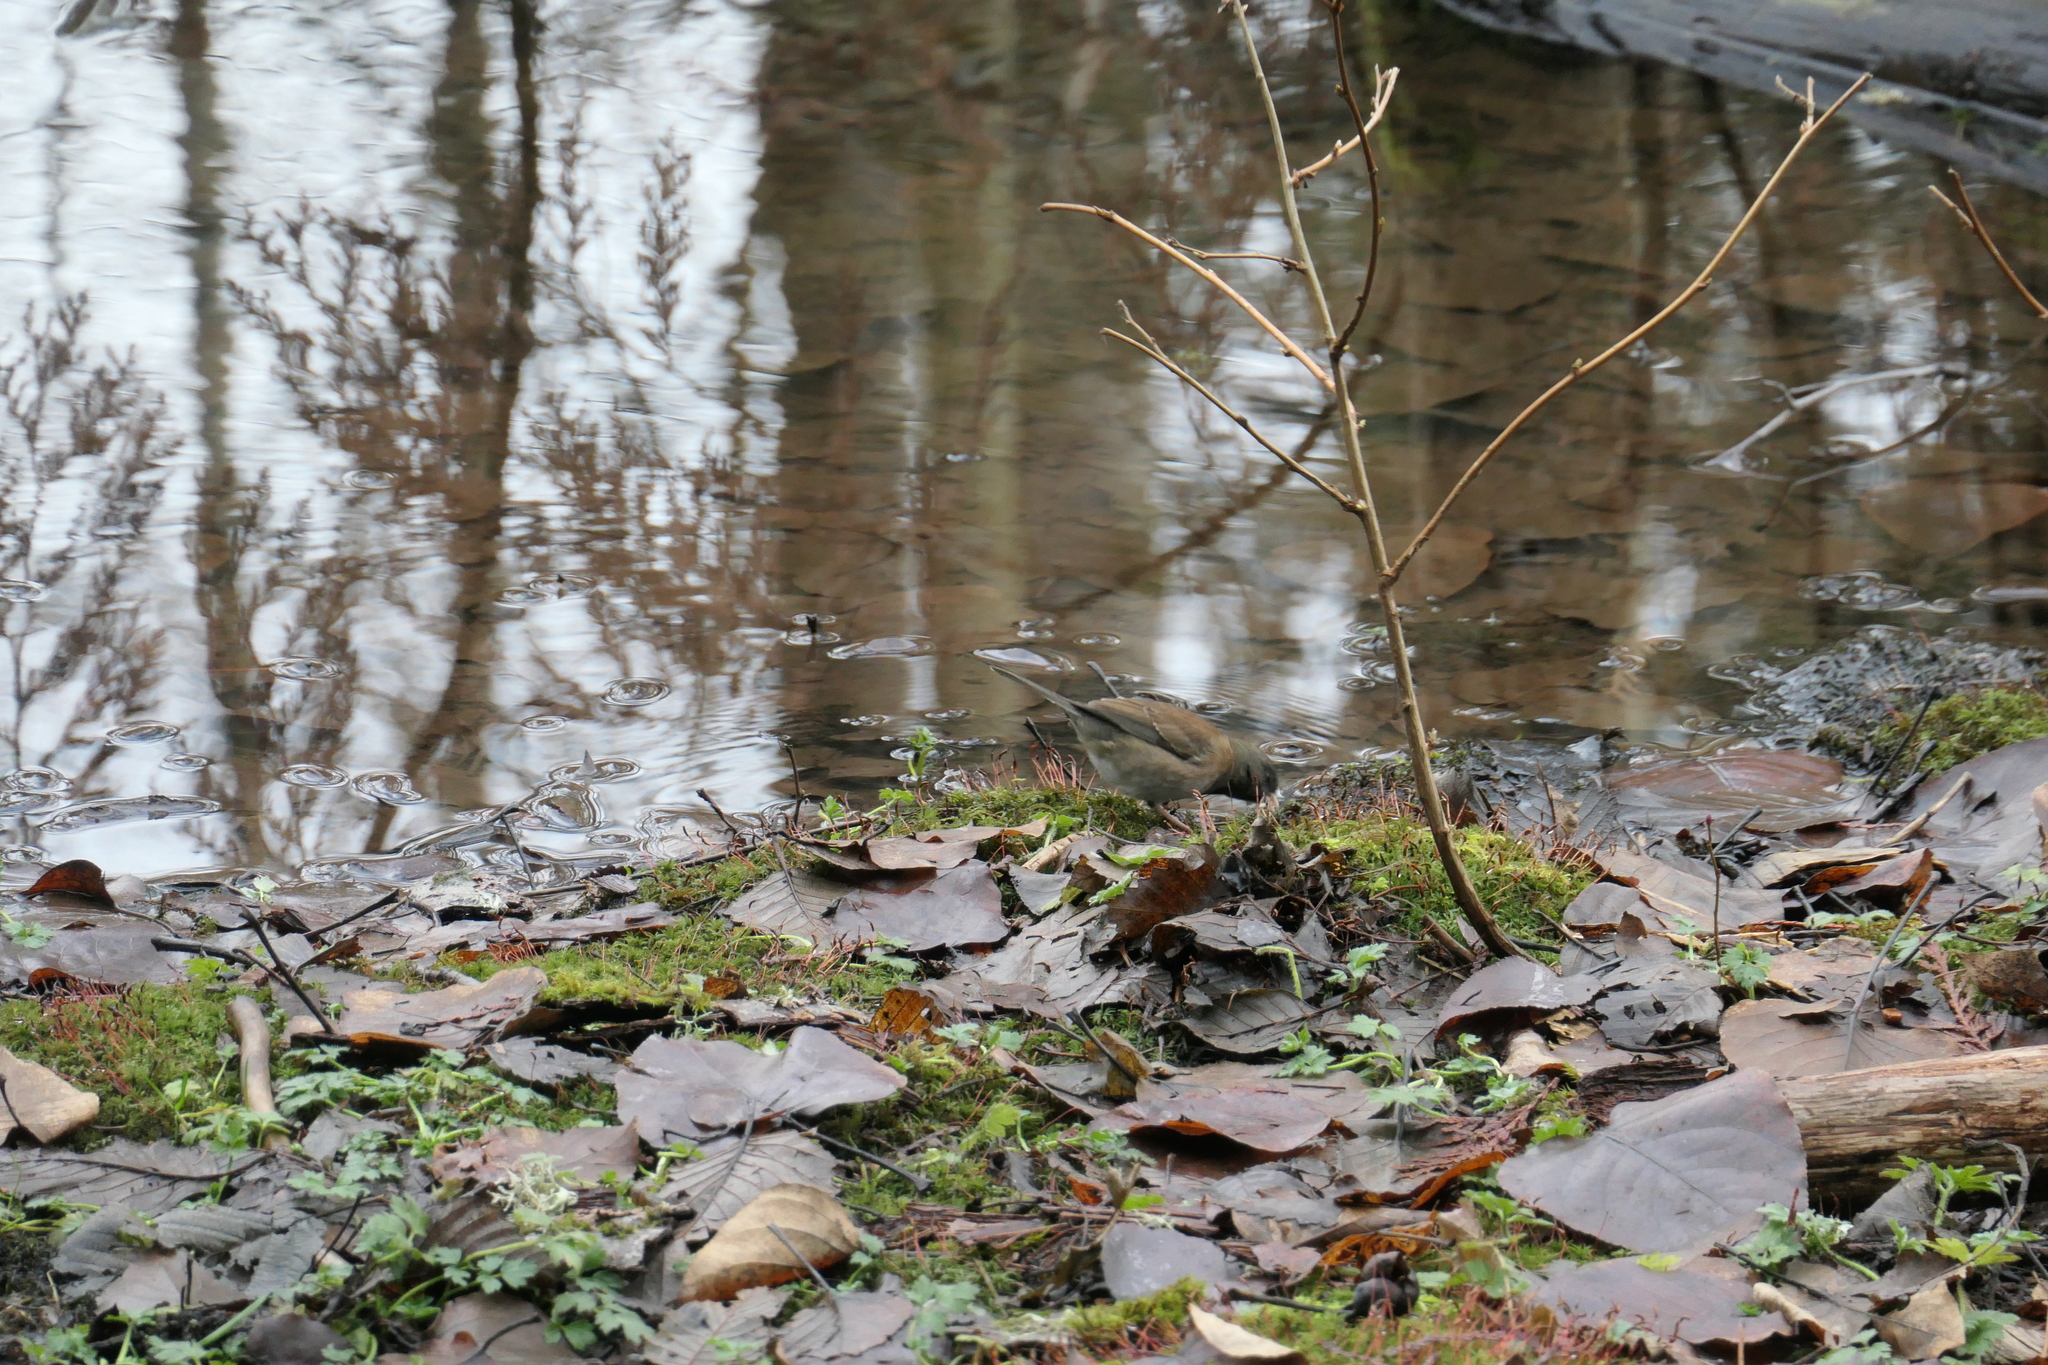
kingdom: Animalia
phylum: Chordata
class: Aves
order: Passeriformes
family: Passerellidae
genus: Junco
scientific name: Junco hyemalis
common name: Dark-eyed junco
